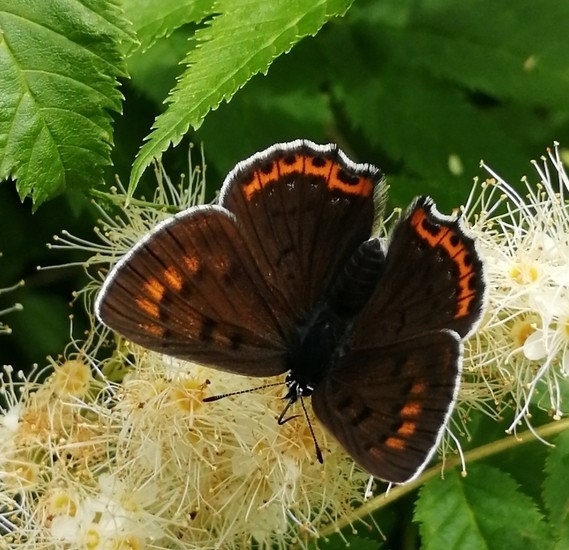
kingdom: Animalia
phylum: Arthropoda
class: Insecta
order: Lepidoptera
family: Lycaenidae
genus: Lycaena
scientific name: Lycaena alciphron
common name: Purple-shot copper
